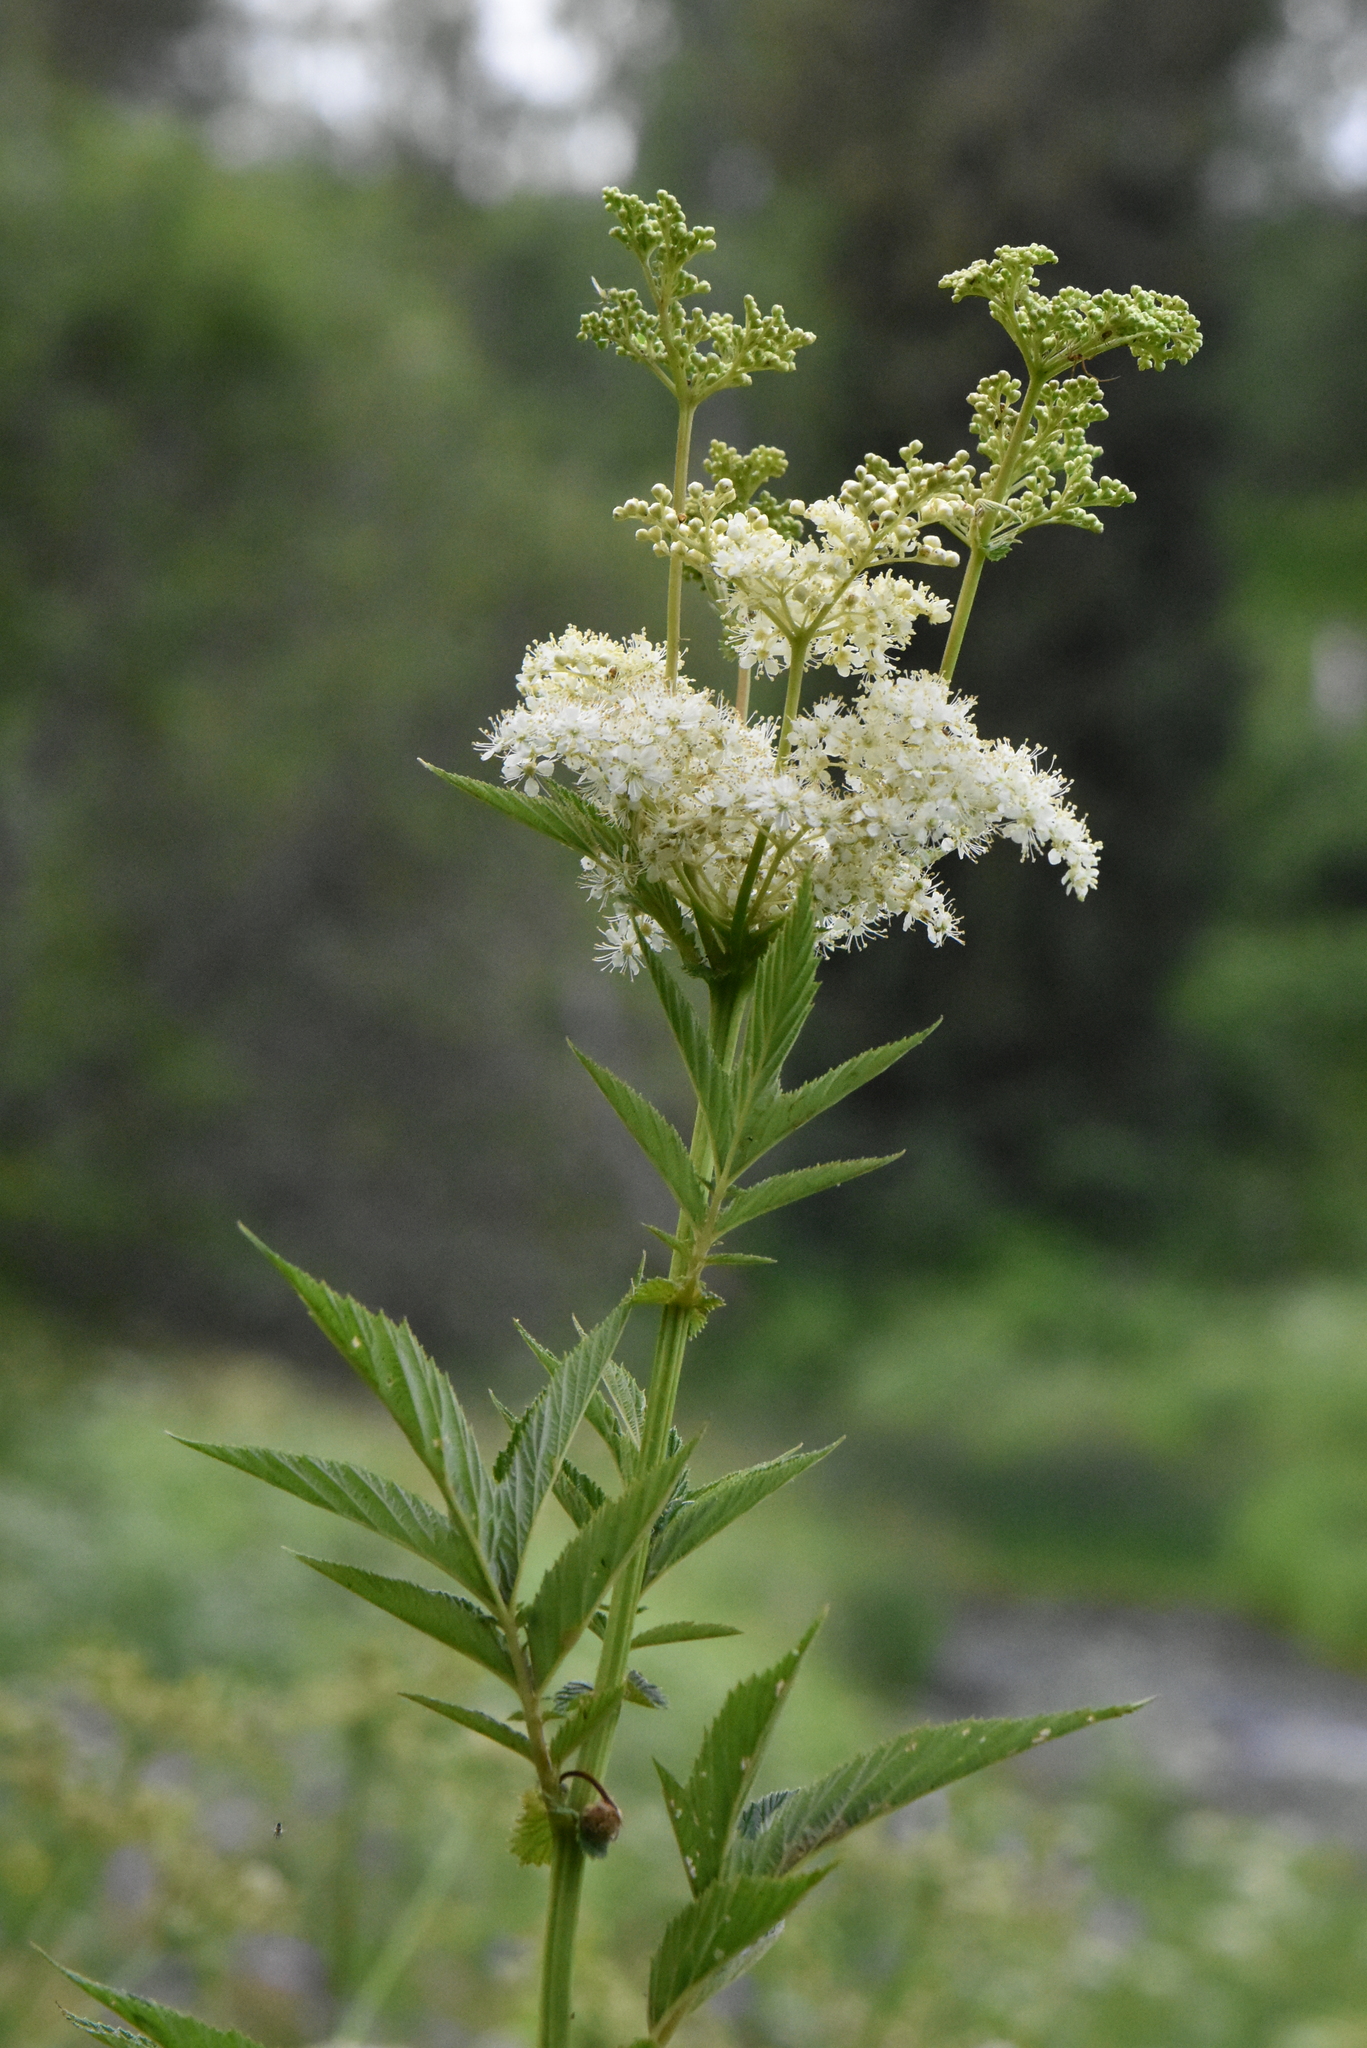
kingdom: Plantae
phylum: Tracheophyta
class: Magnoliopsida
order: Rosales
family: Rosaceae
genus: Filipendula
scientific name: Filipendula ulmaria
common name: Meadowsweet
